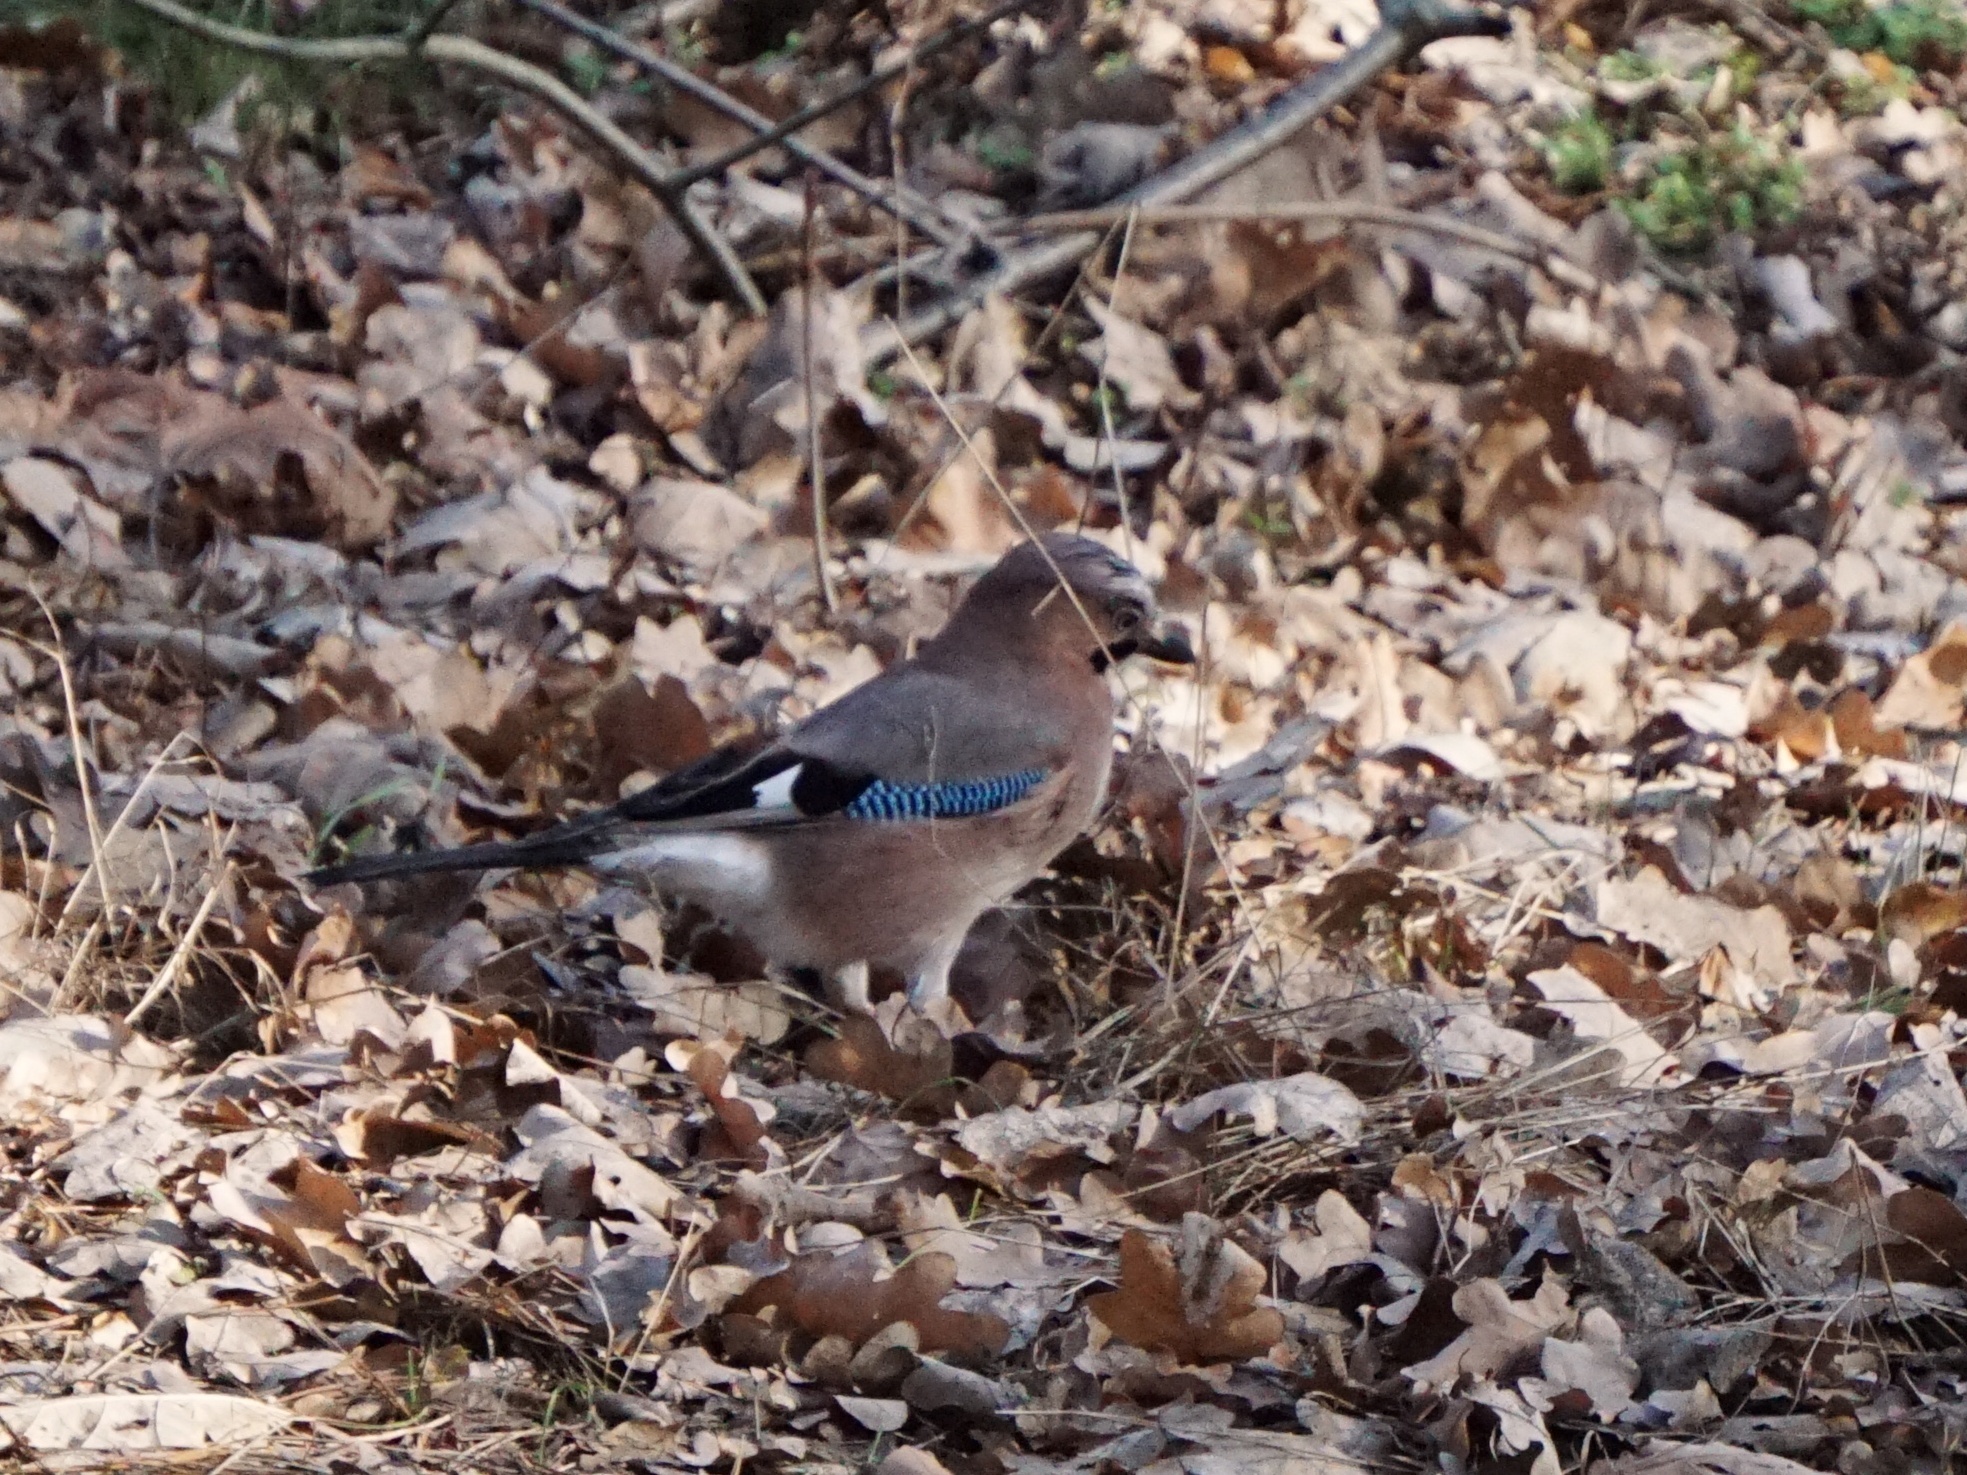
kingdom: Animalia
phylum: Chordata
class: Aves
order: Passeriformes
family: Corvidae
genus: Garrulus
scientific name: Garrulus glandarius
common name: Eurasian jay
